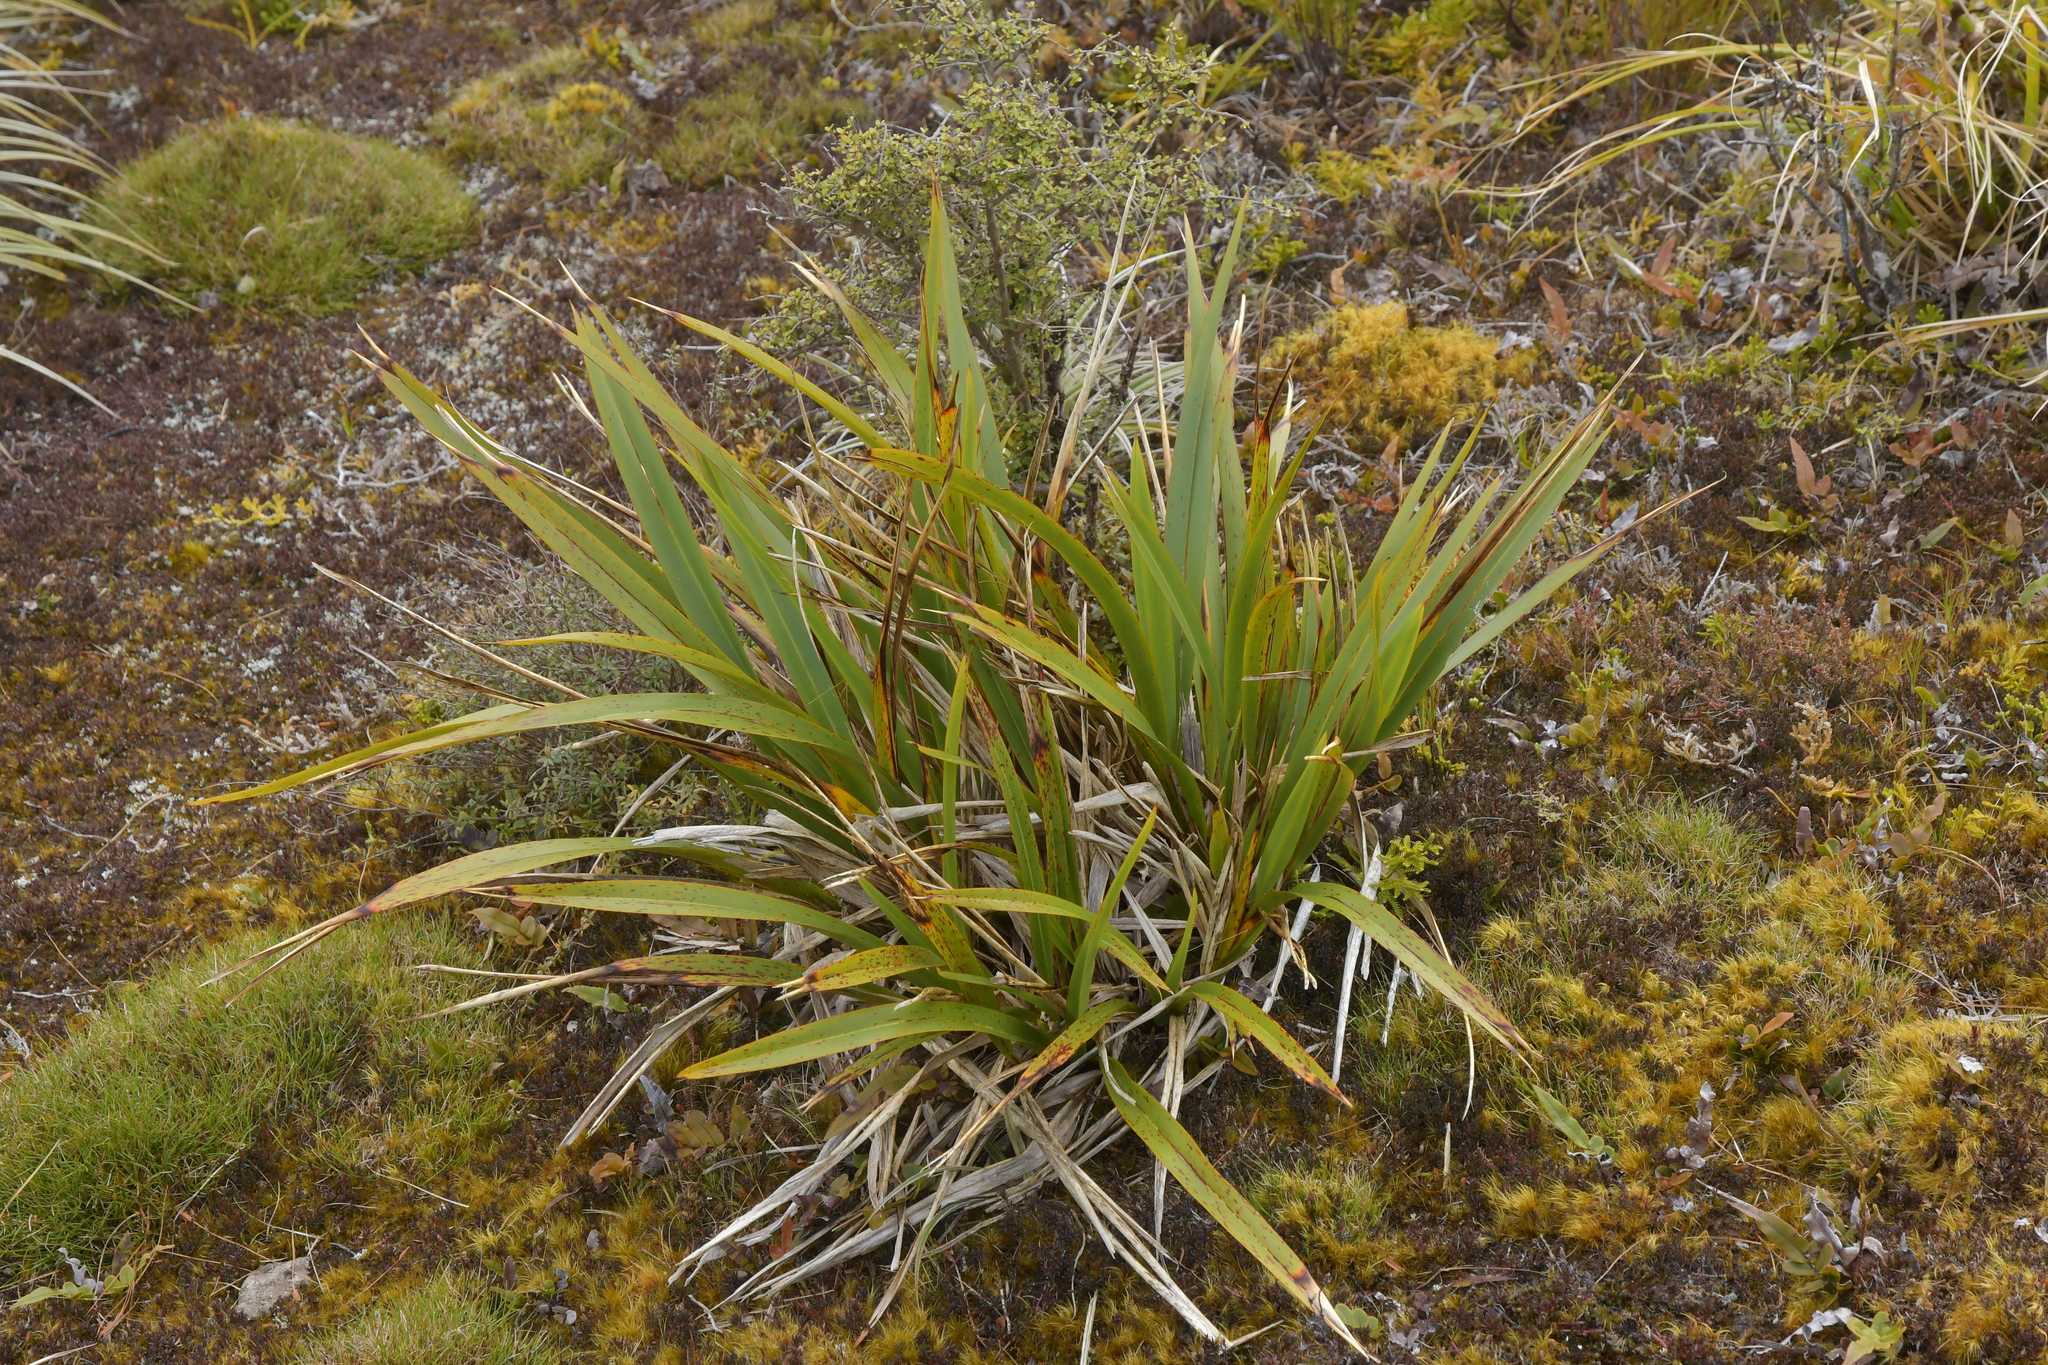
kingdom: Plantae
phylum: Tracheophyta
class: Liliopsida
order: Asparagales
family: Asphodelaceae
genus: Phormium
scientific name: Phormium colensoi
